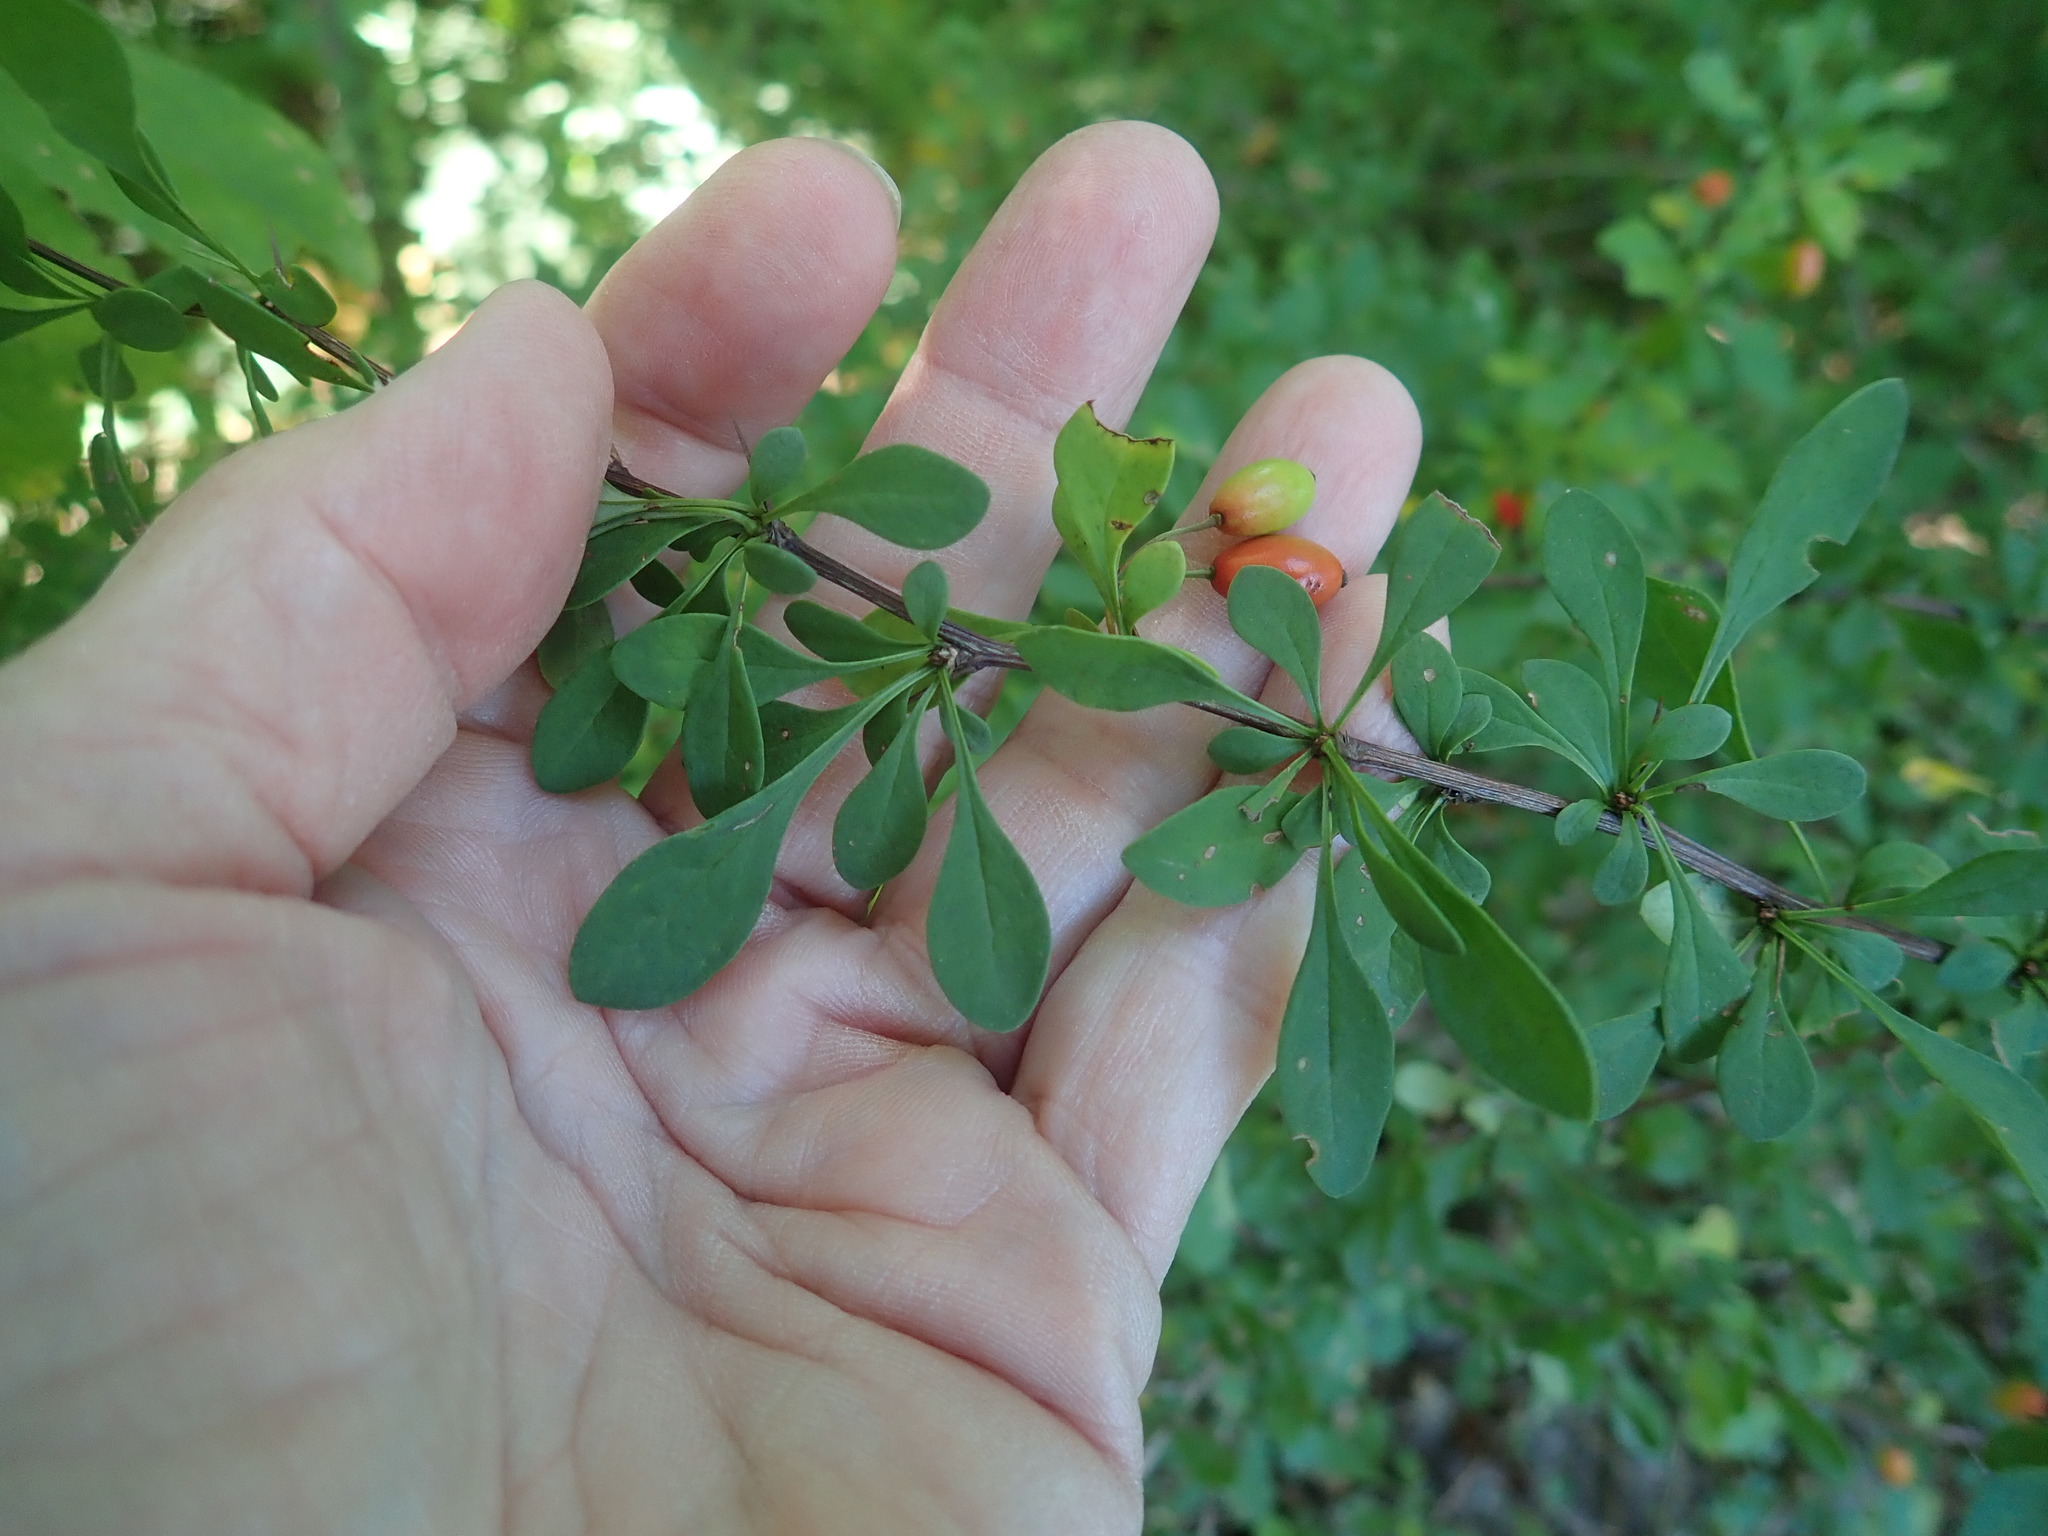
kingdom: Plantae
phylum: Tracheophyta
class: Magnoliopsida
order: Ranunculales
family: Berberidaceae
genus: Berberis
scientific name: Berberis thunbergii
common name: Japanese barberry
